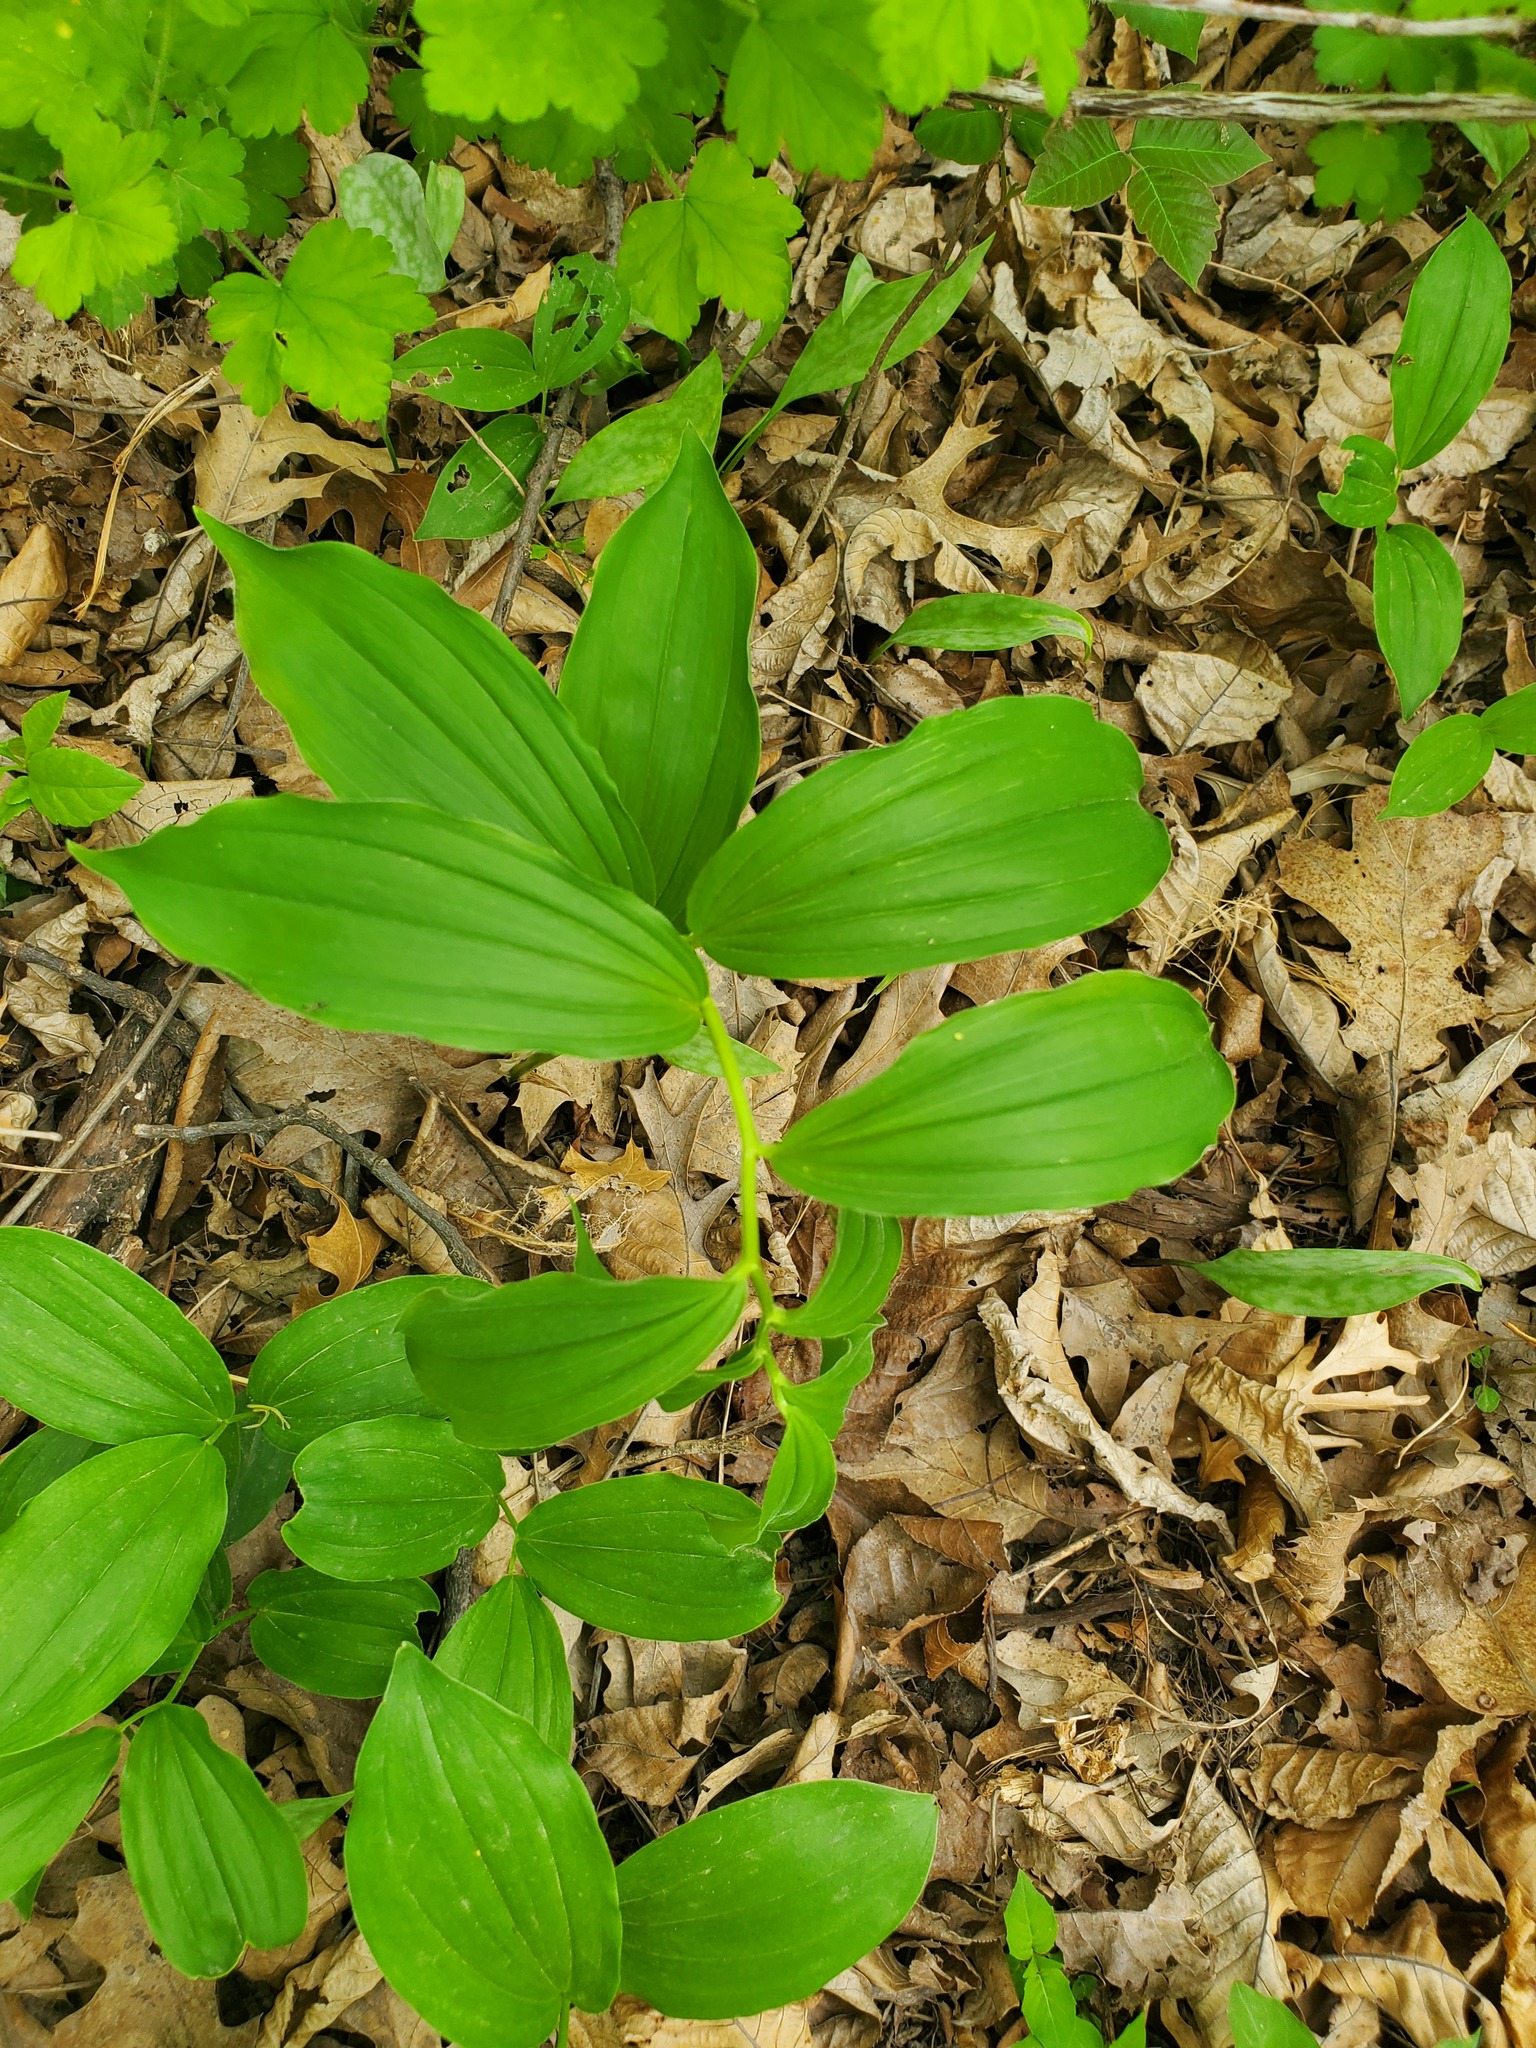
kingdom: Plantae
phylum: Tracheophyta
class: Liliopsida
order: Asparagales
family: Asparagaceae
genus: Maianthemum
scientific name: Maianthemum racemosum
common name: False spikenard
